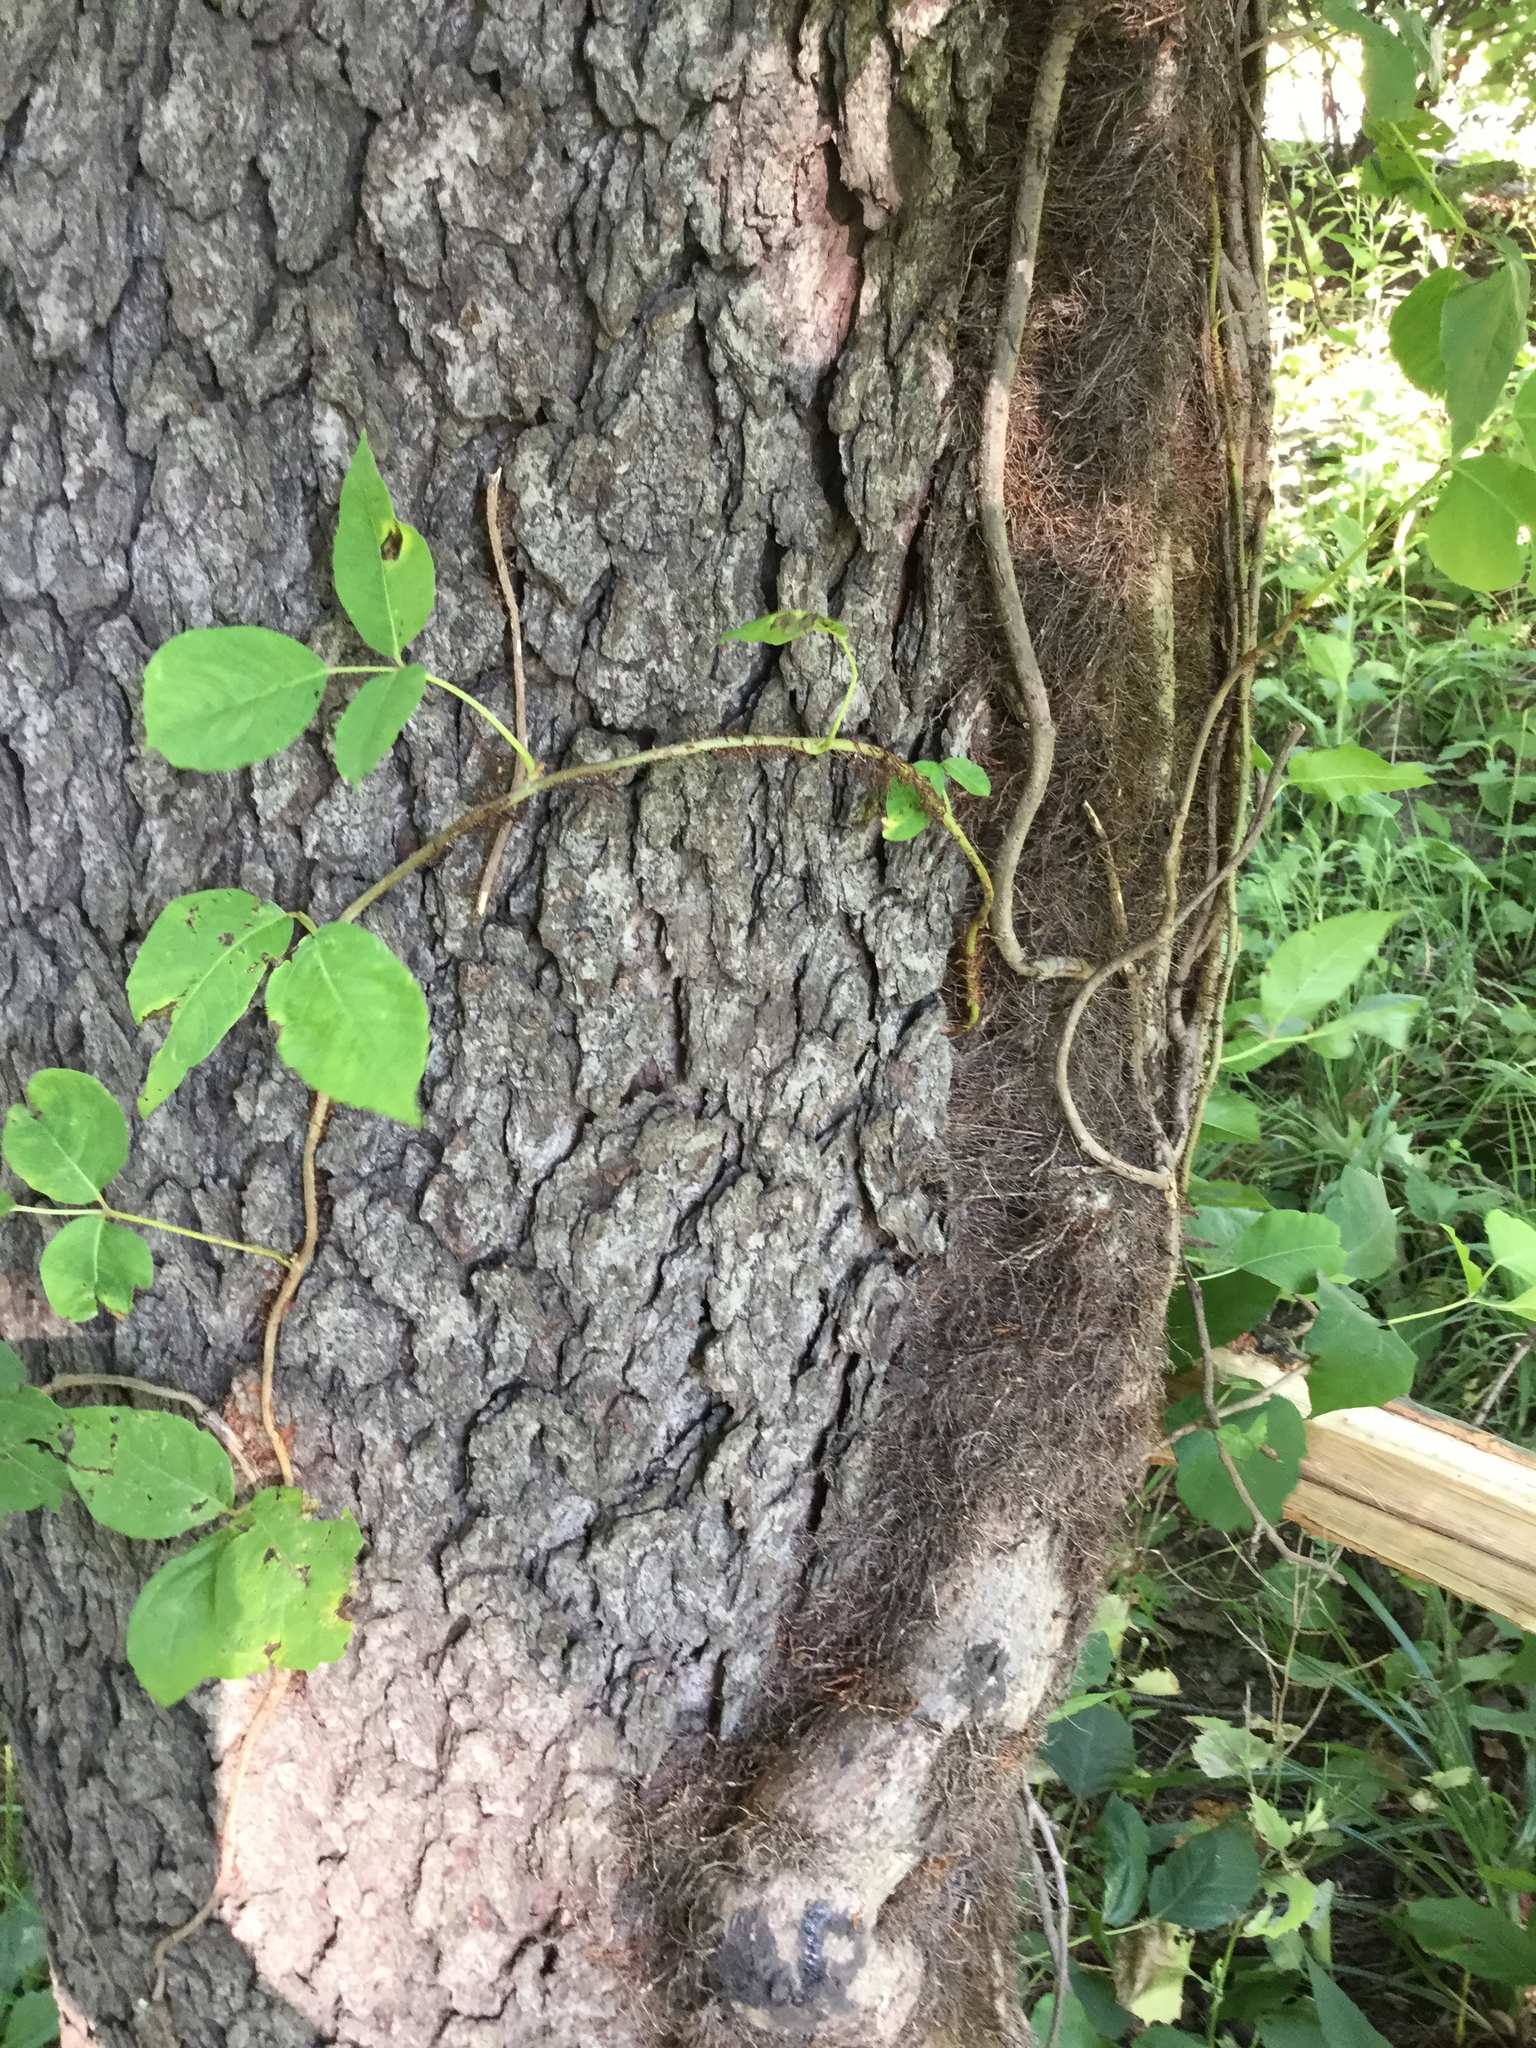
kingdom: Plantae
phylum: Tracheophyta
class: Magnoliopsida
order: Sapindales
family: Anacardiaceae
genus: Toxicodendron
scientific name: Toxicodendron radicans
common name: Poison ivy
